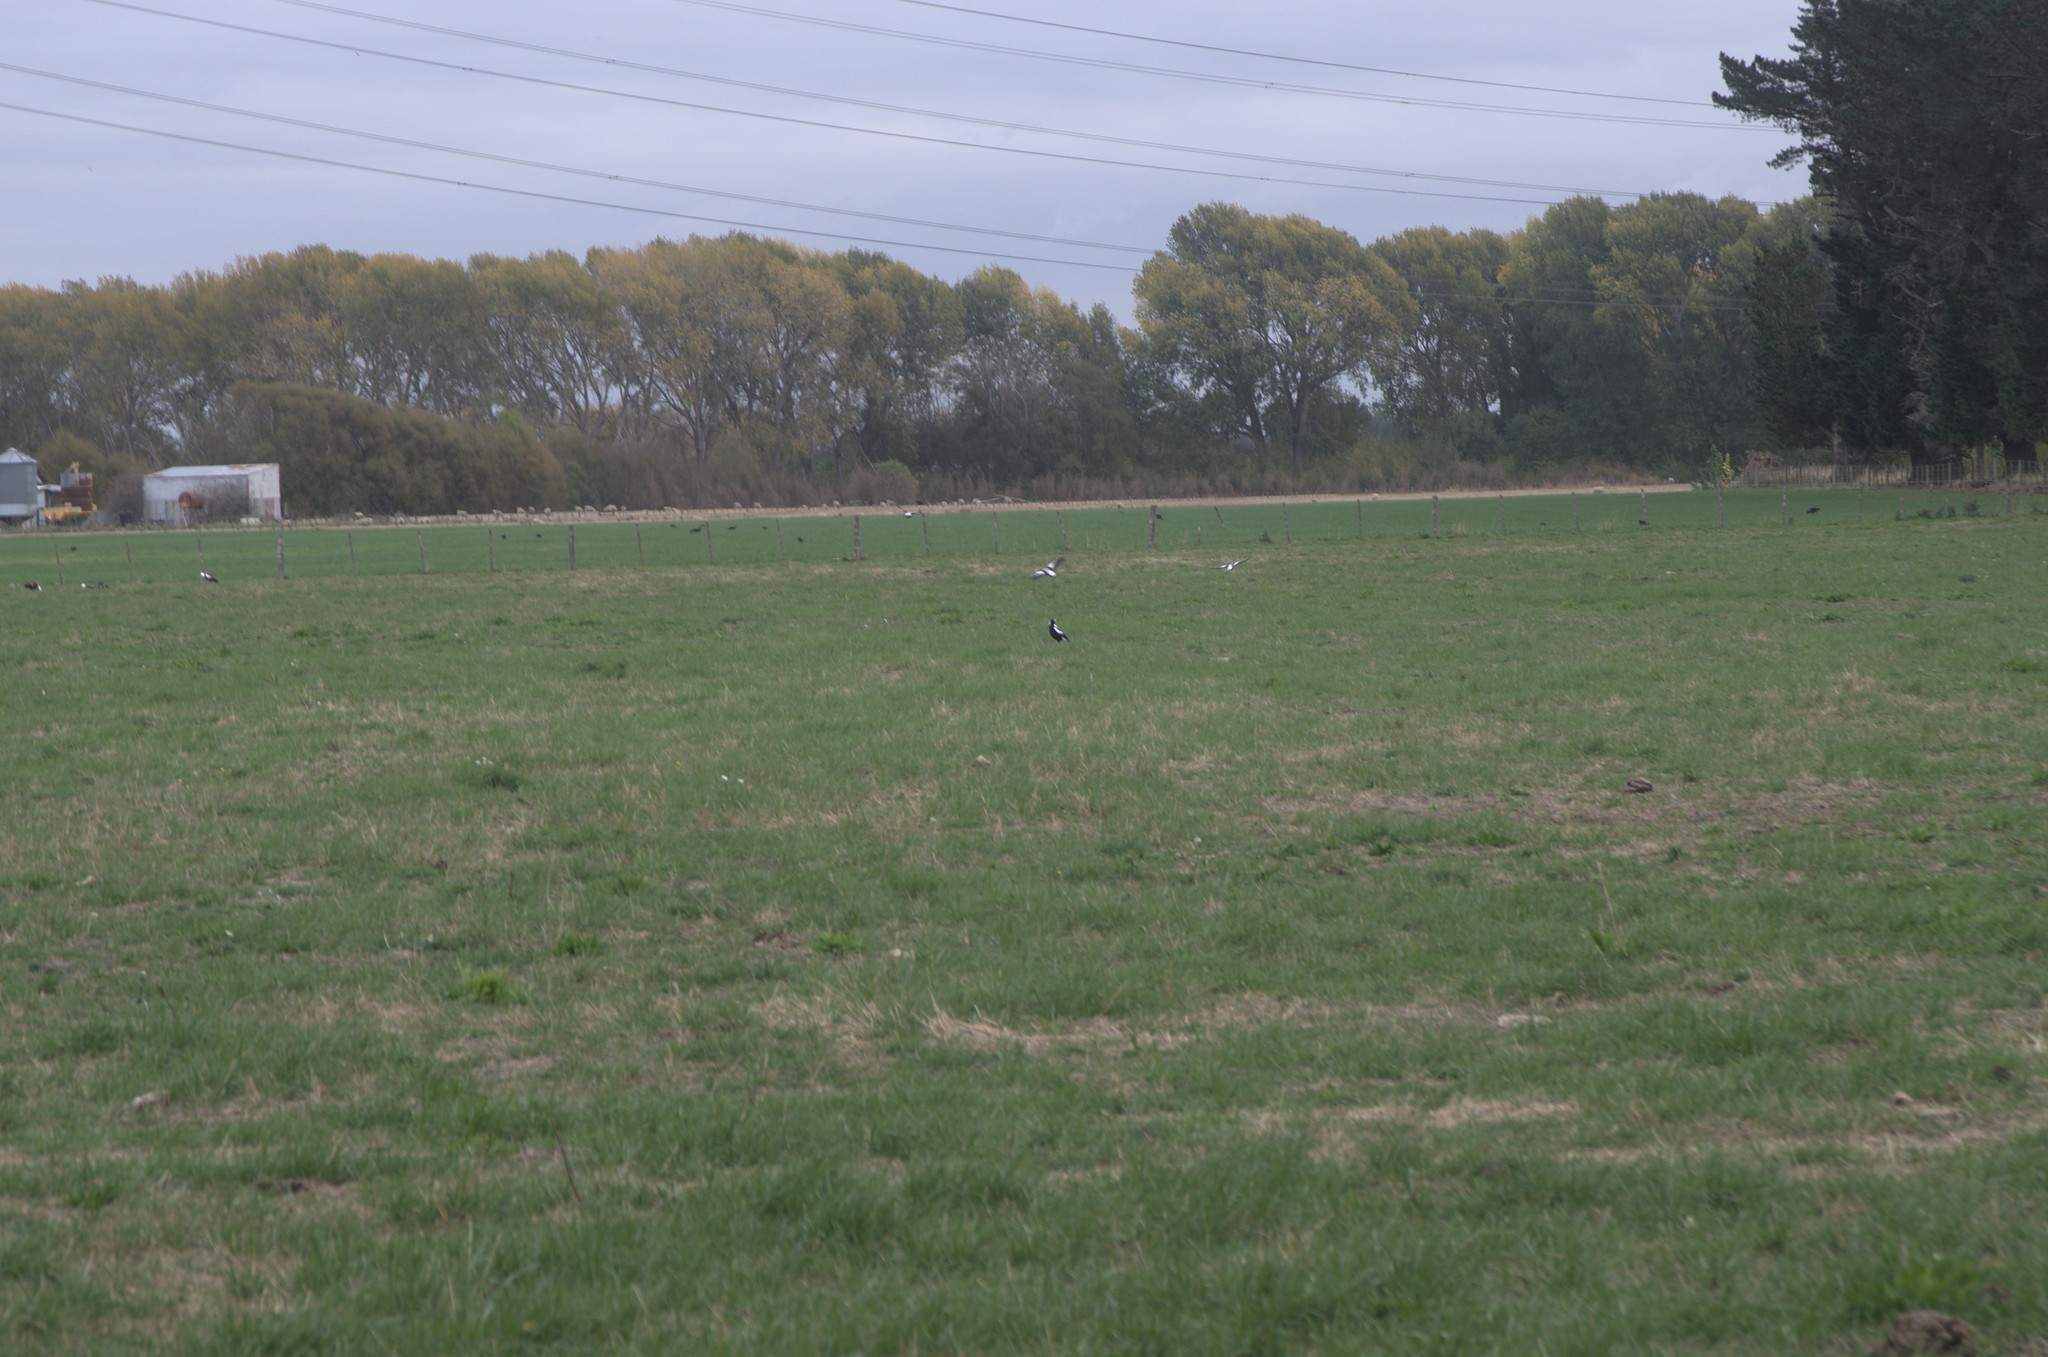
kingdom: Animalia
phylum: Chordata
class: Aves
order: Anseriformes
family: Anatidae
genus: Tadorna
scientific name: Tadorna variegata
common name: Paradise shelduck
